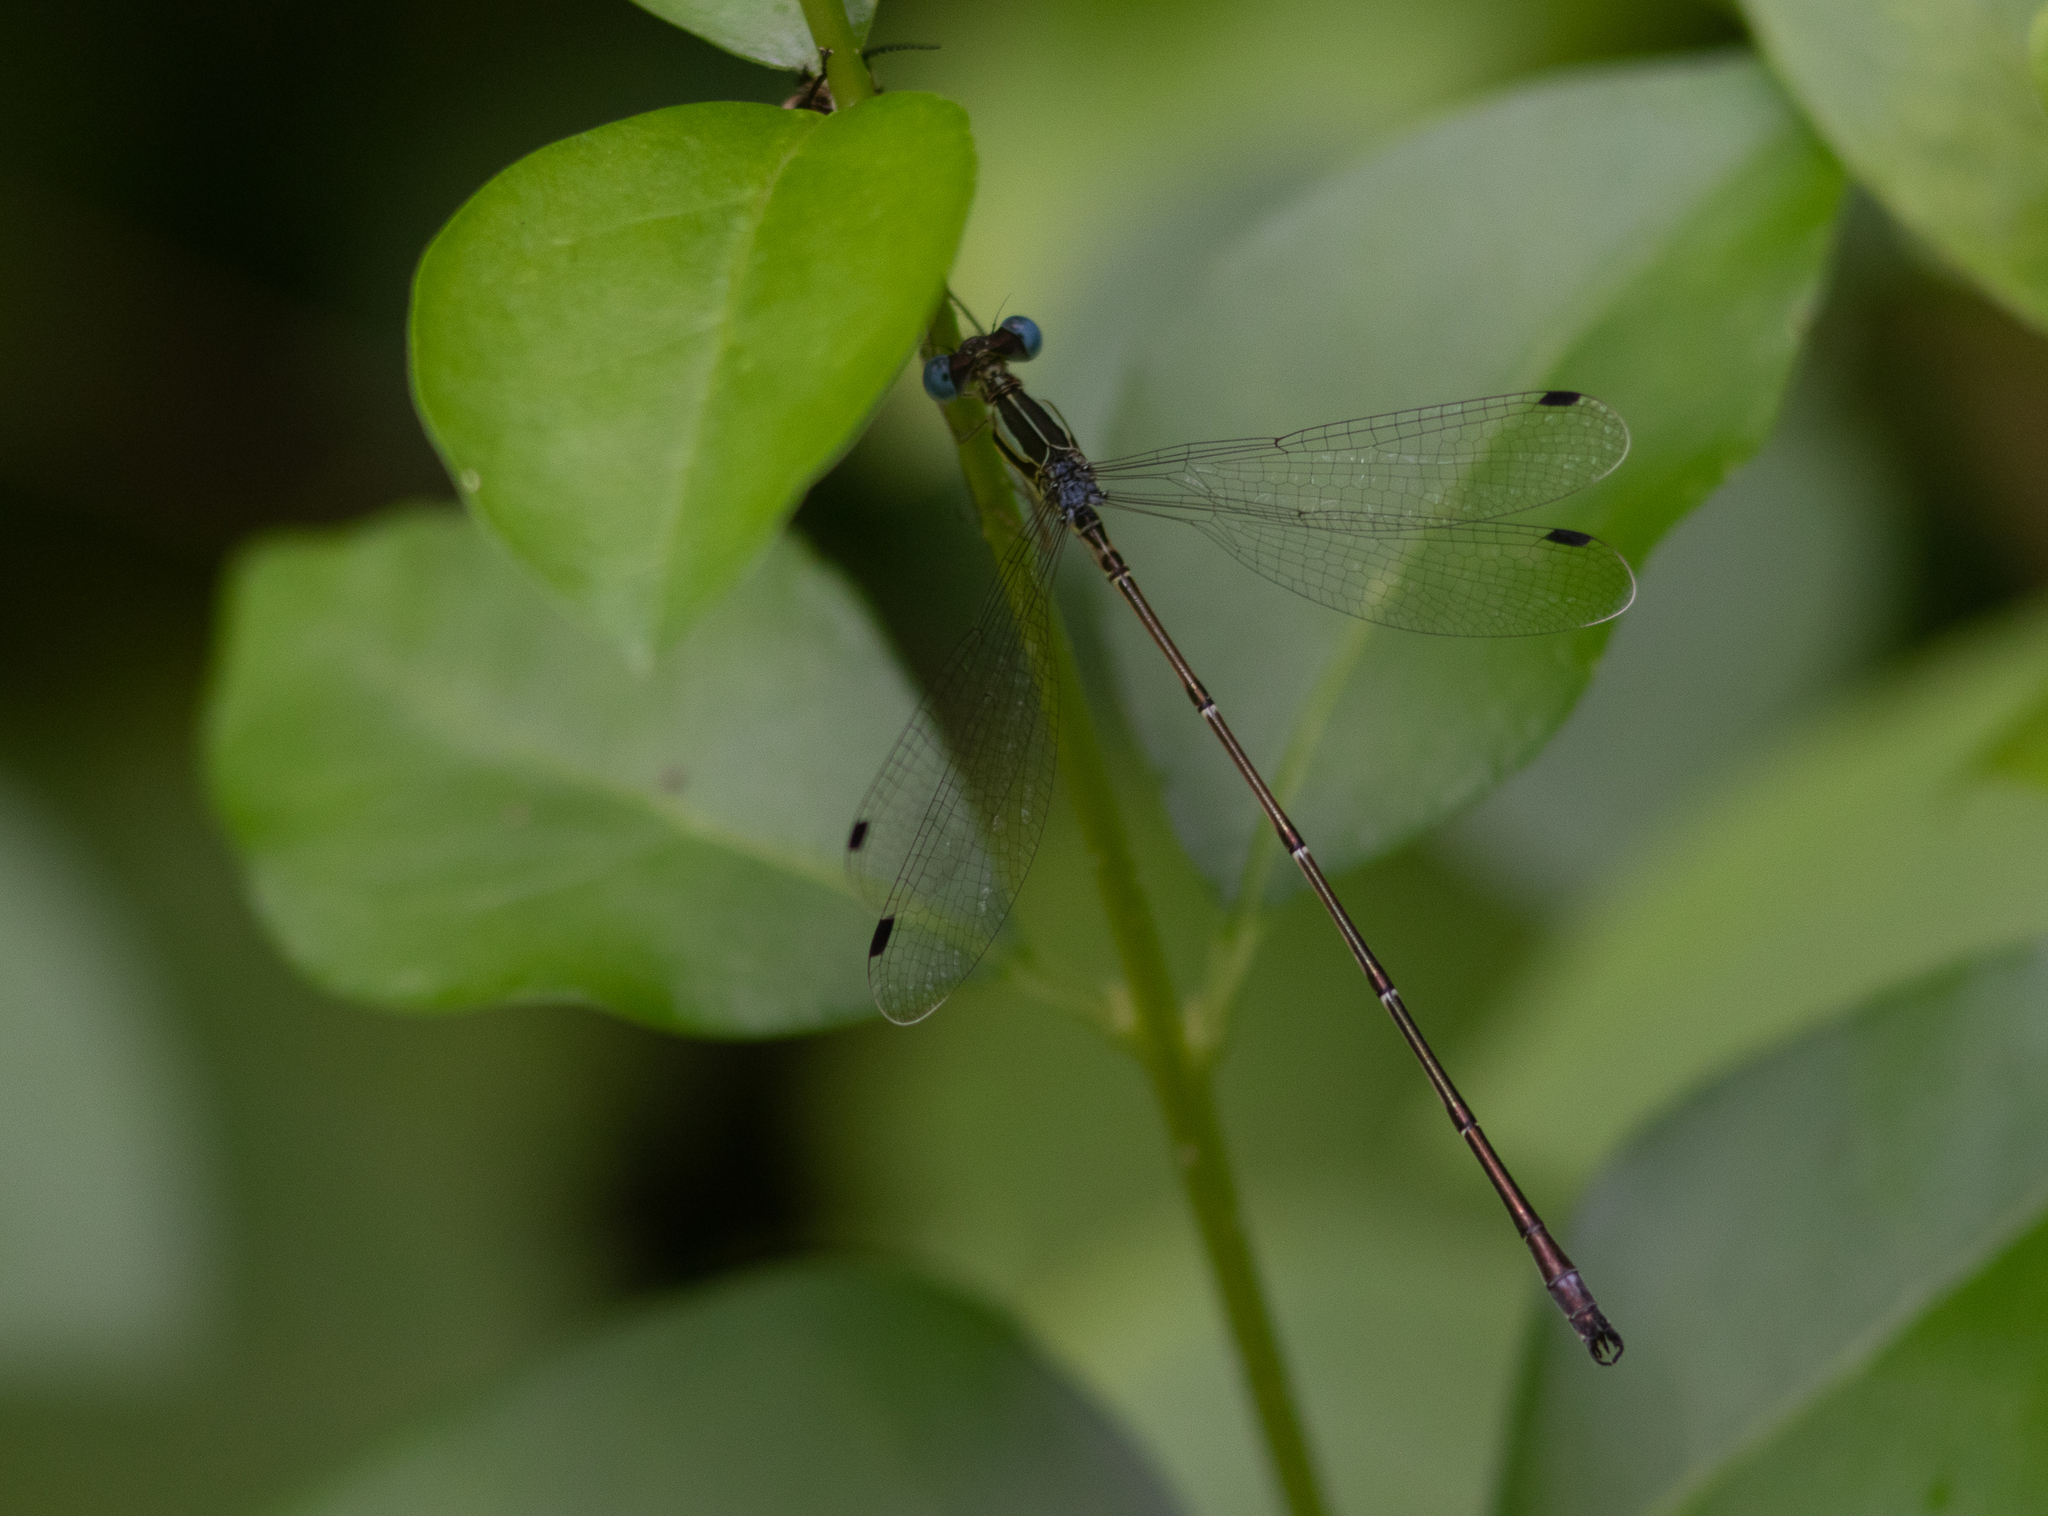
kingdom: Animalia
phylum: Arthropoda
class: Insecta
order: Odonata
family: Lestidae
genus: Lestes
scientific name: Lestes rectangularis
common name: Slender spreadwing
